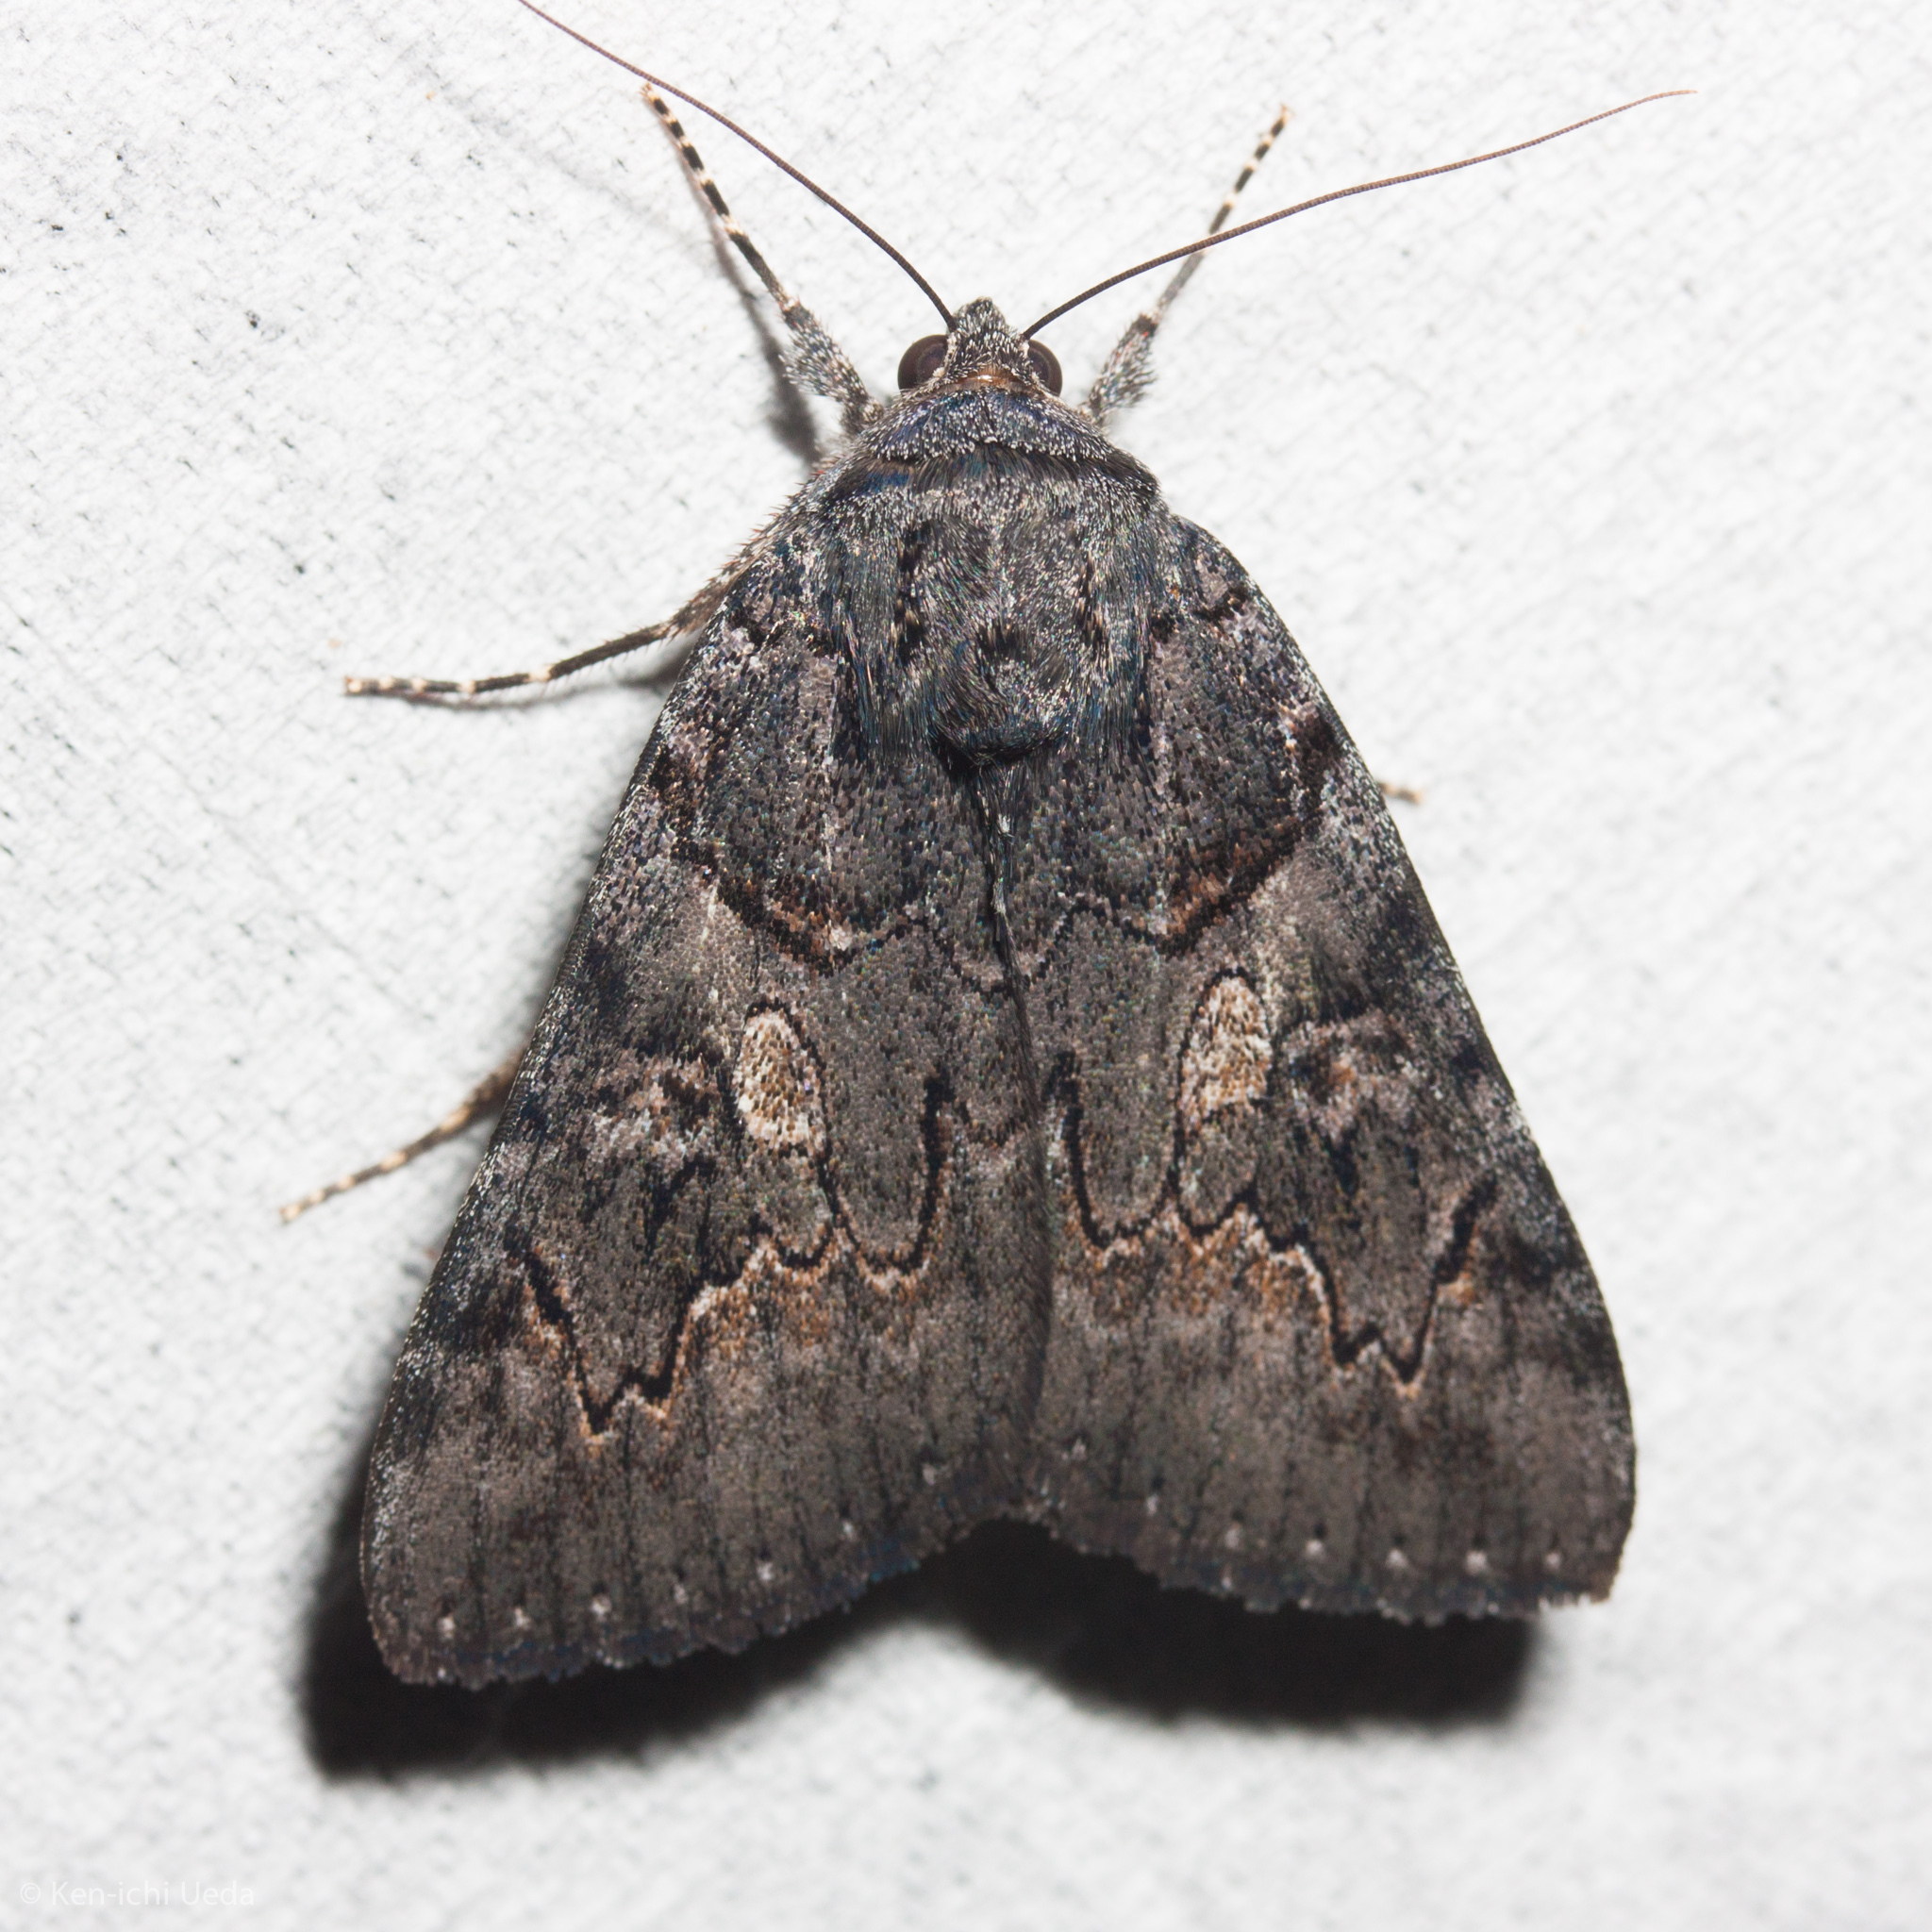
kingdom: Animalia
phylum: Arthropoda
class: Insecta
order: Lepidoptera
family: Erebidae
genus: Catocala
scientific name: Catocala antinympha
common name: Sweetfern underwing
